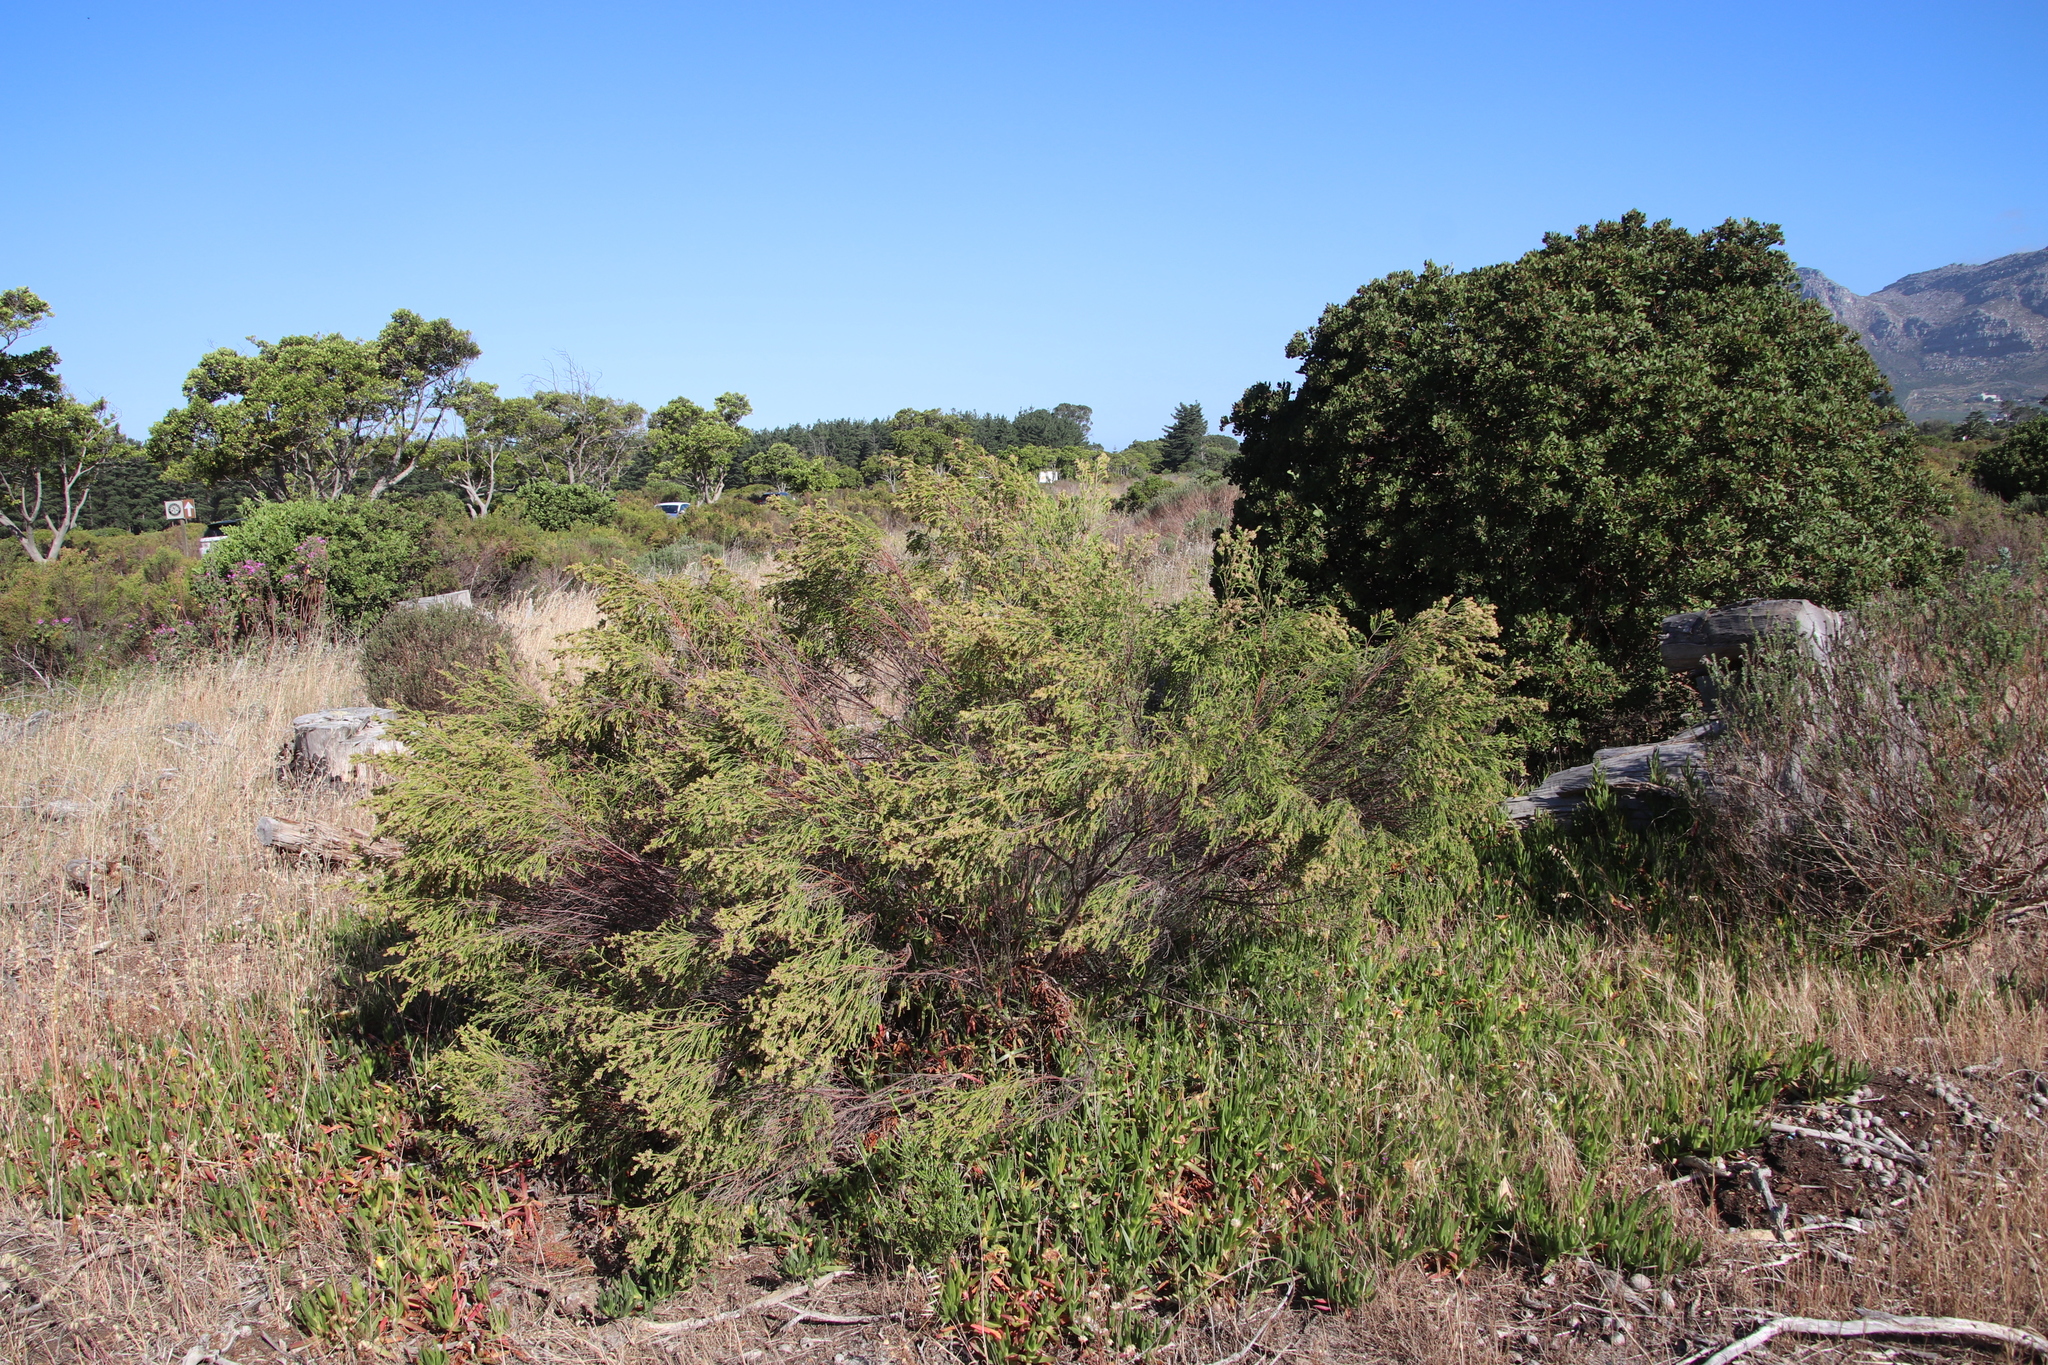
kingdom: Plantae
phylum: Tracheophyta
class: Magnoliopsida
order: Malvales
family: Thymelaeaceae
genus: Passerina
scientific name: Passerina corymbosa
